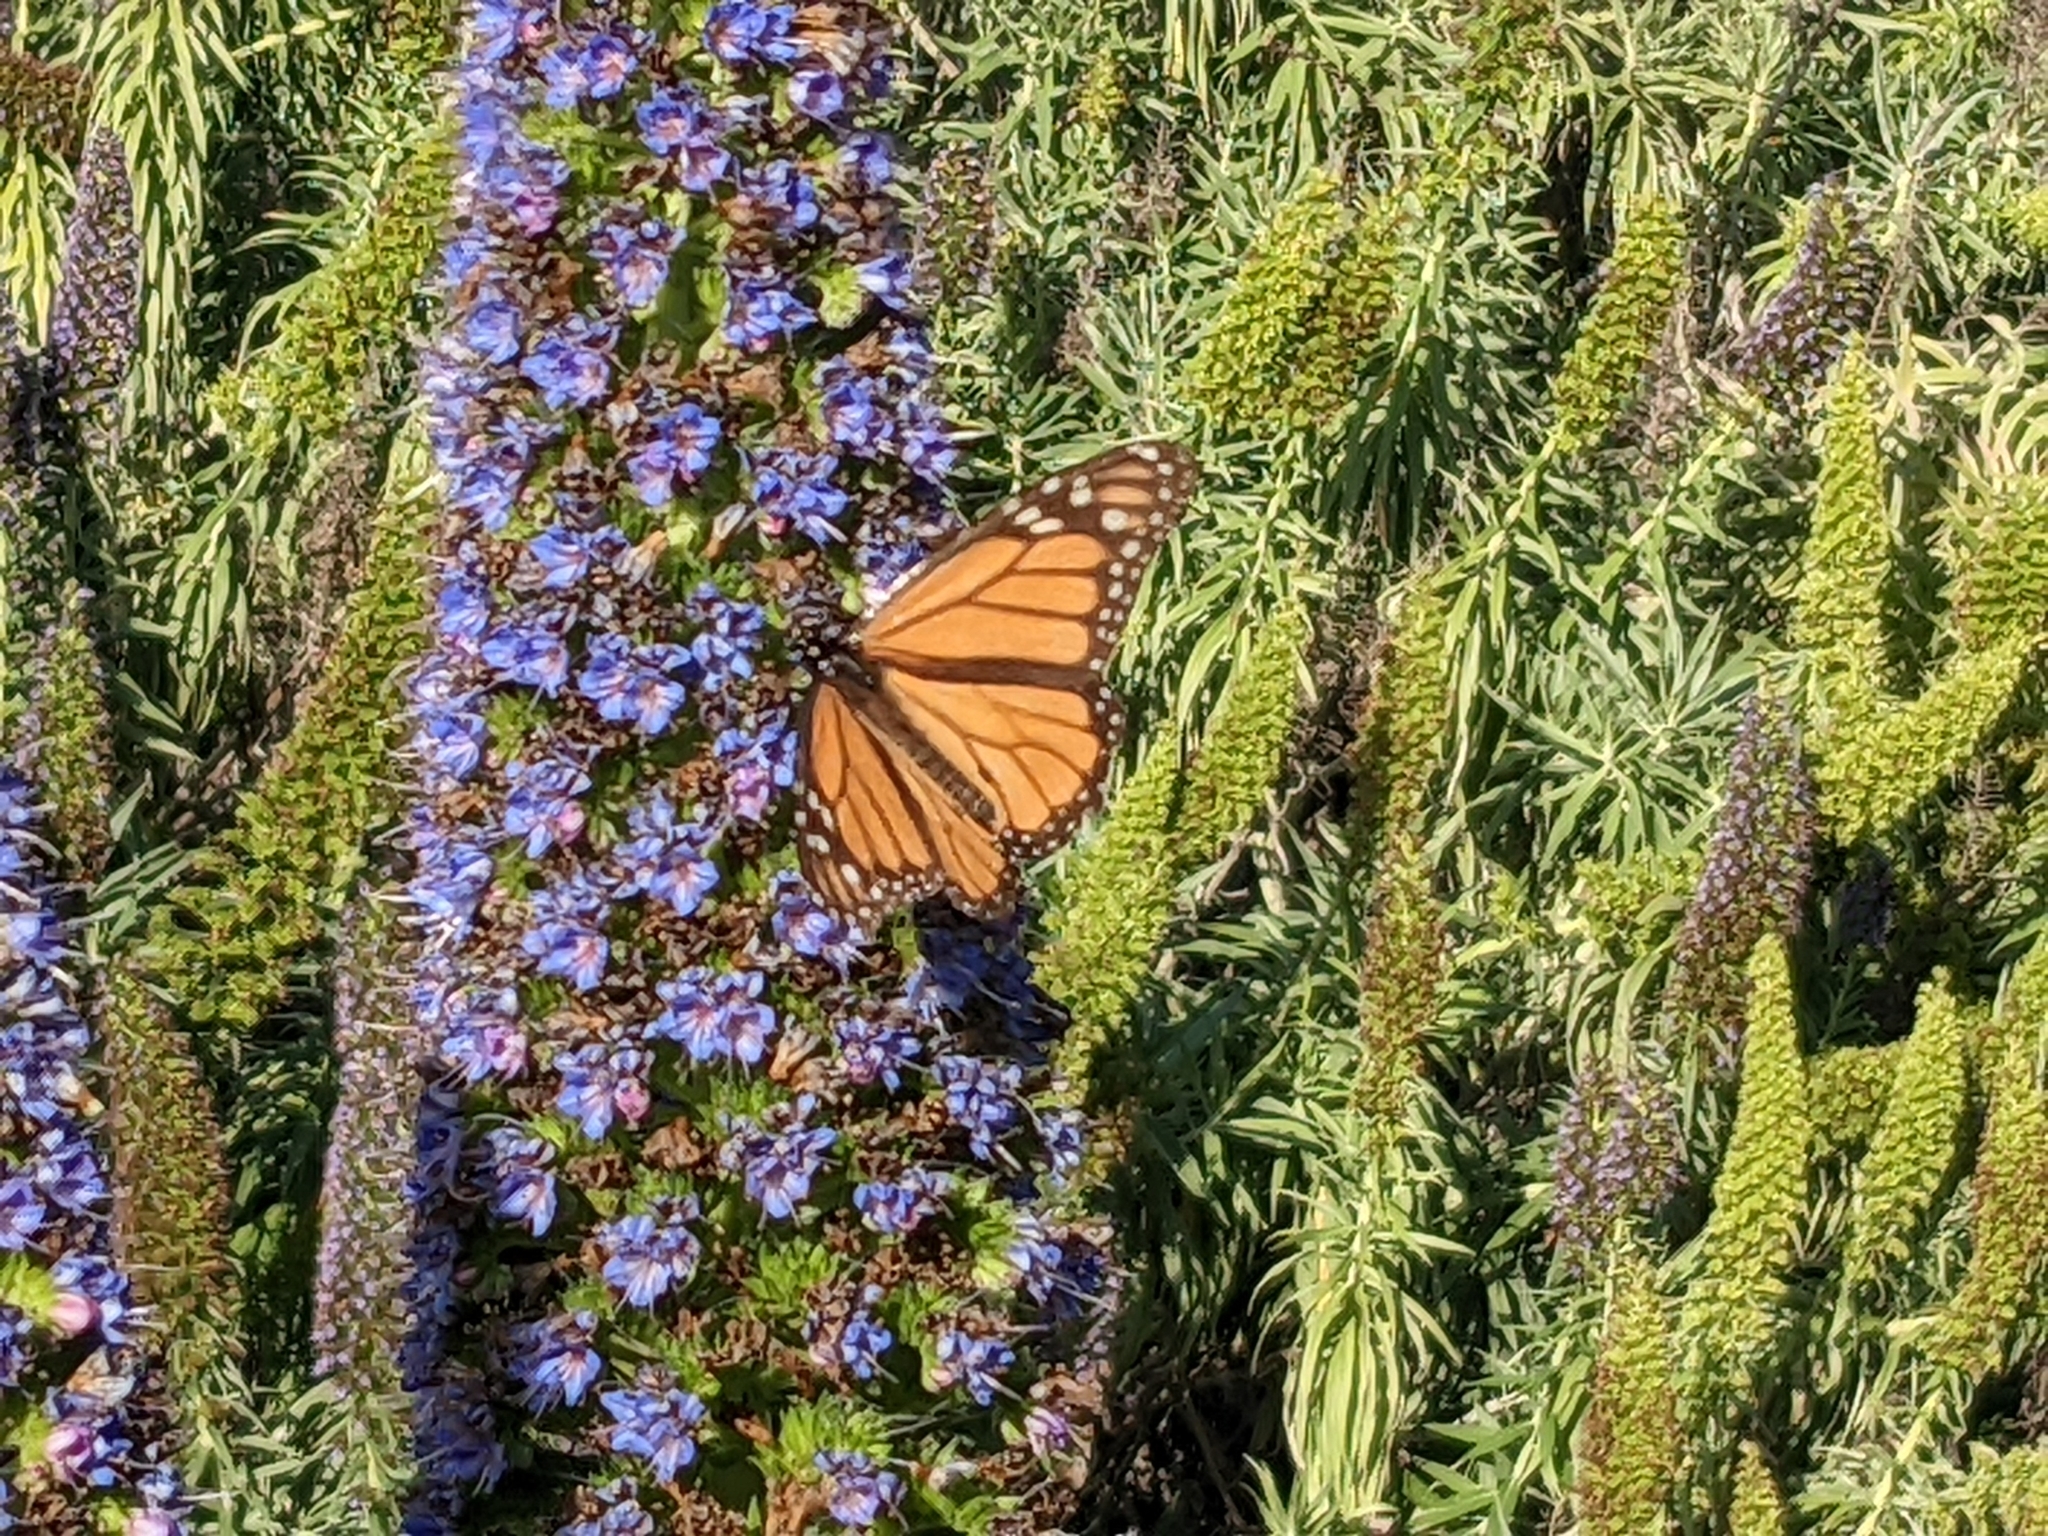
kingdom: Animalia
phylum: Arthropoda
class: Insecta
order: Lepidoptera
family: Nymphalidae
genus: Danaus
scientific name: Danaus plexippus
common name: Monarch
